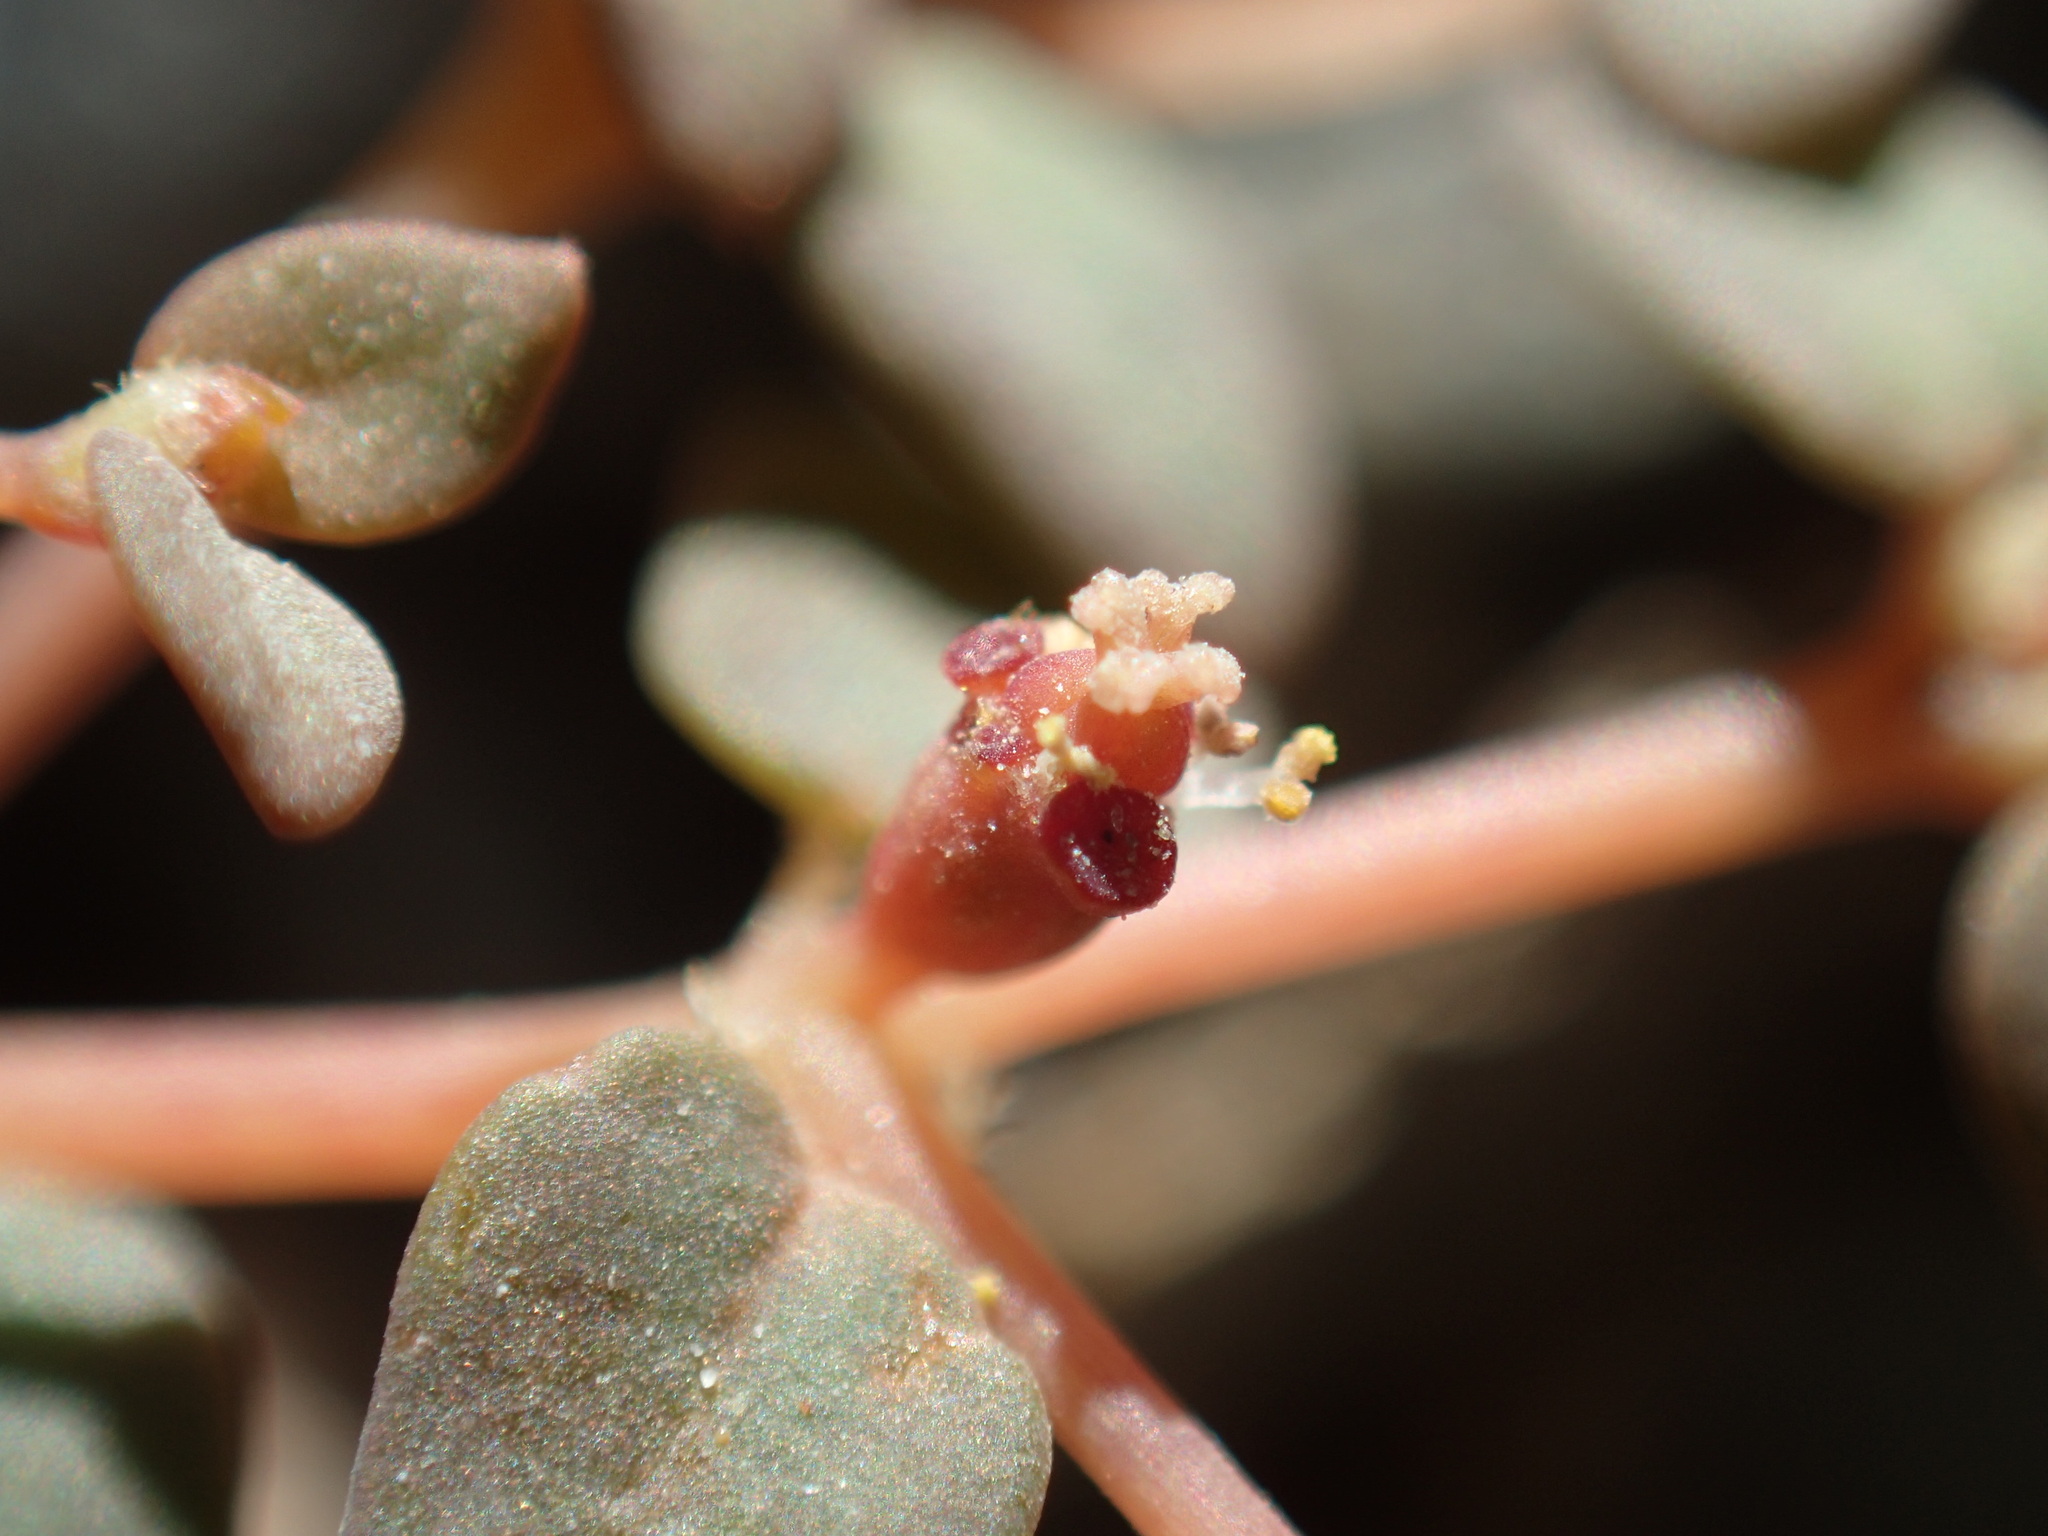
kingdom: Plantae
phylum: Tracheophyta
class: Magnoliopsida
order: Malpighiales
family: Euphorbiaceae
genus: Euphorbia
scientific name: Euphorbia parishii
